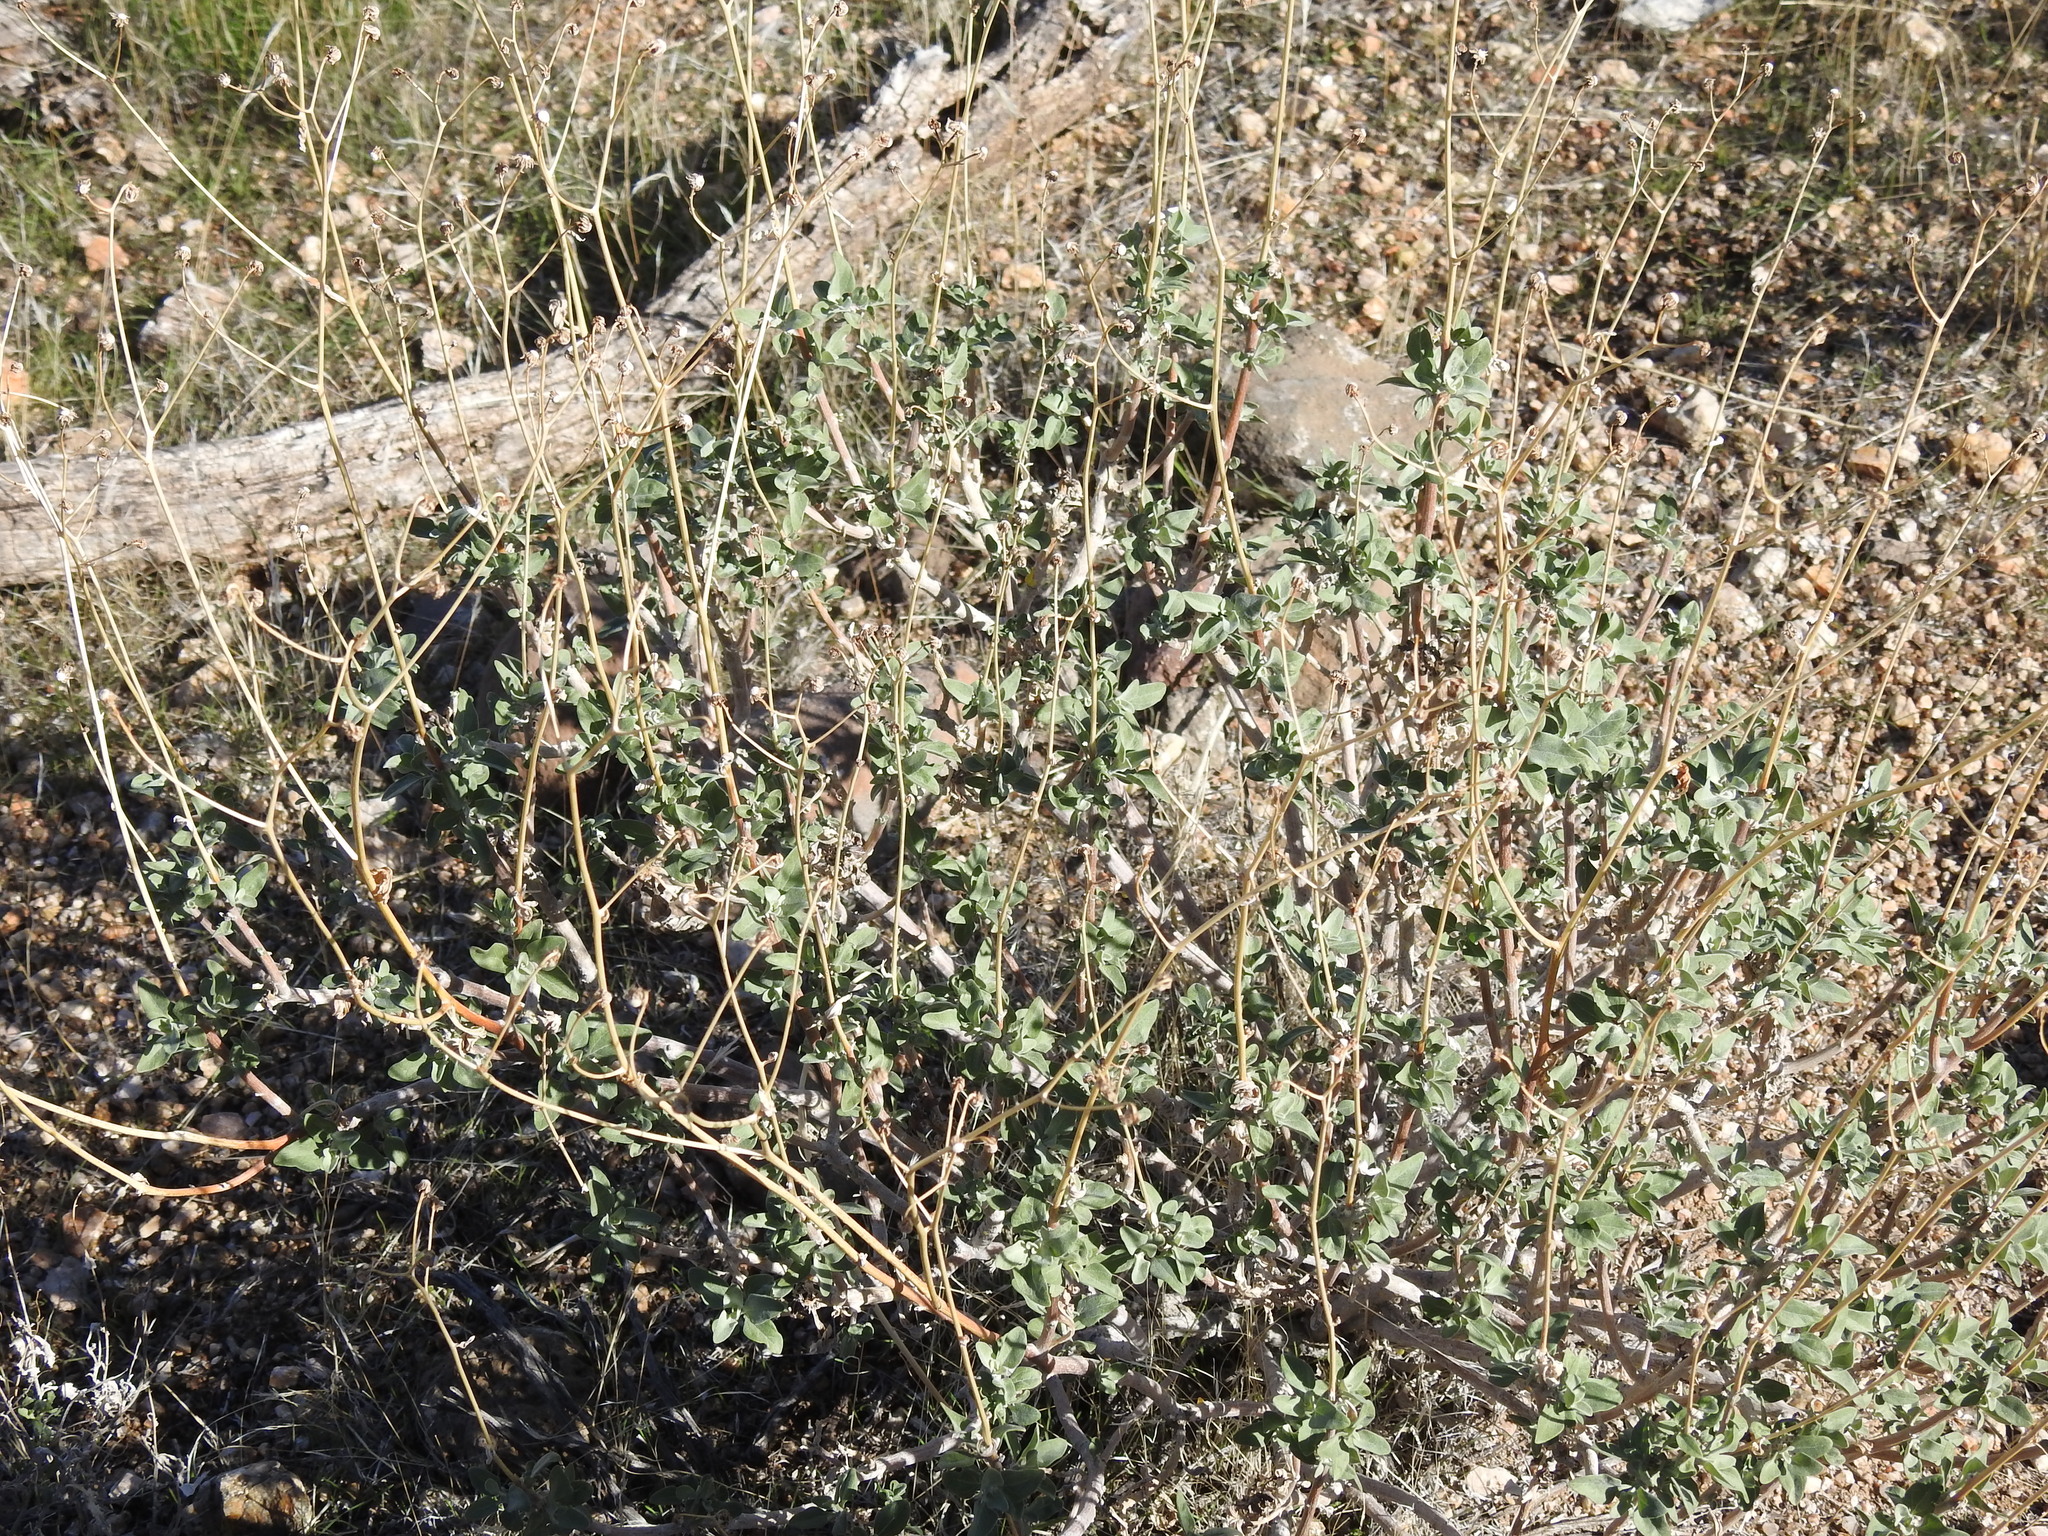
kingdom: Plantae
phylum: Tracheophyta
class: Magnoliopsida
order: Asterales
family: Asteraceae
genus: Encelia
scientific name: Encelia farinosa
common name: Brittlebush
